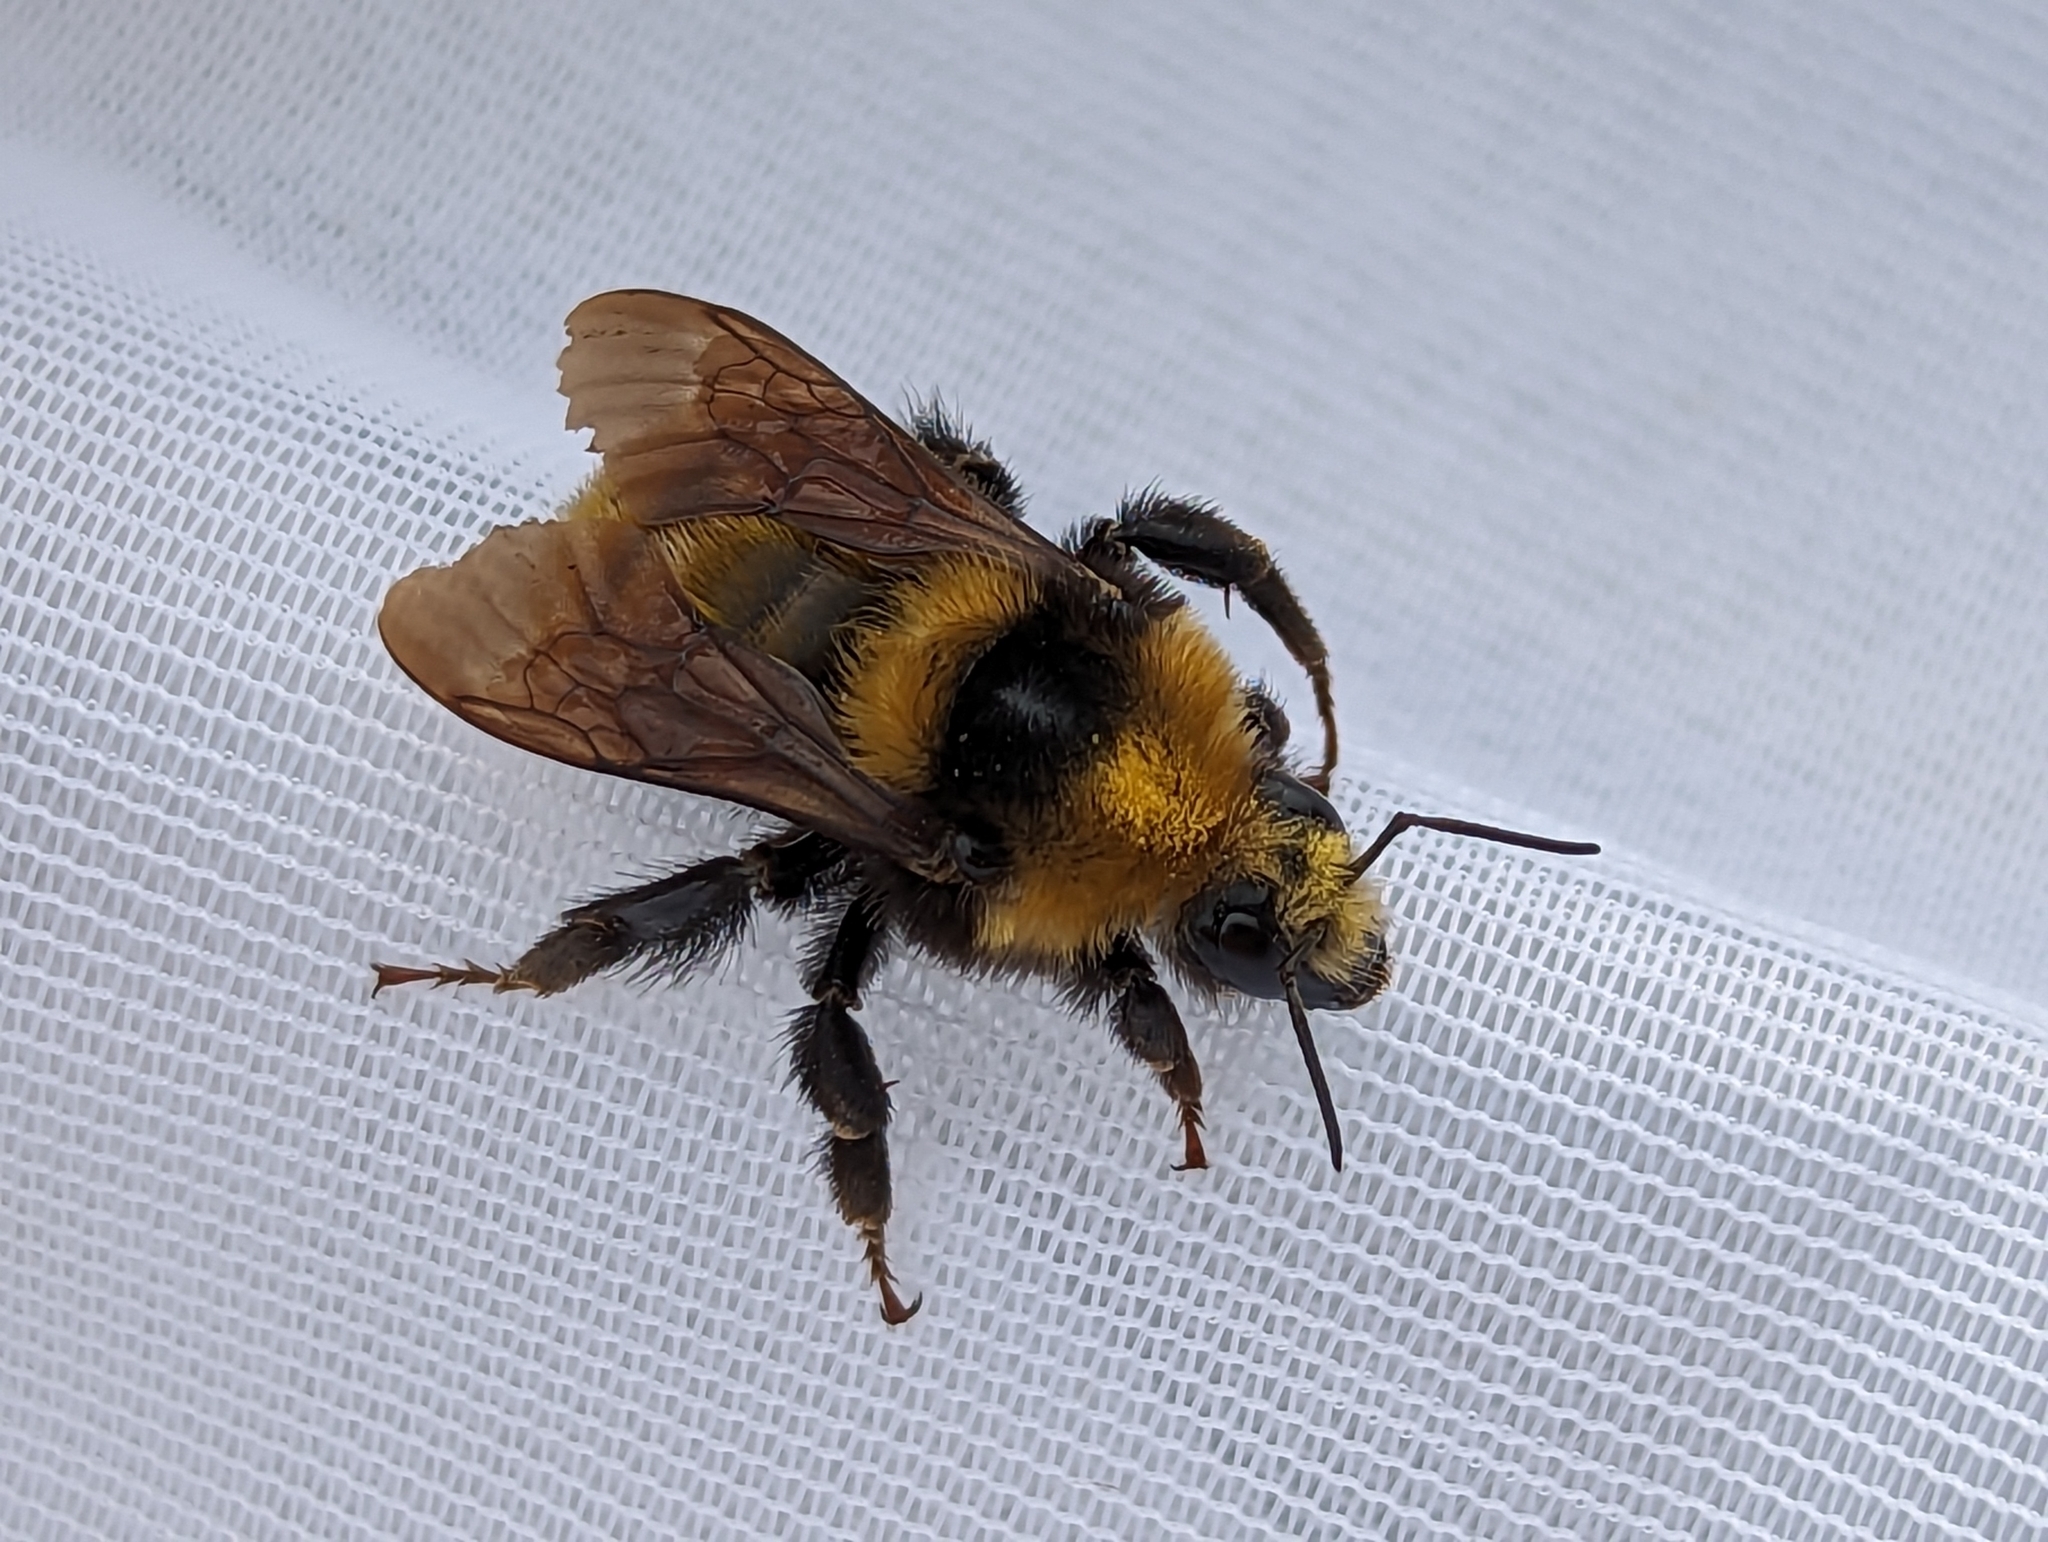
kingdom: Animalia
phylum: Arthropoda
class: Insecta
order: Hymenoptera
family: Apidae
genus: Bombus
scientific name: Bombus borealis
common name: Northern amber bumble bee
